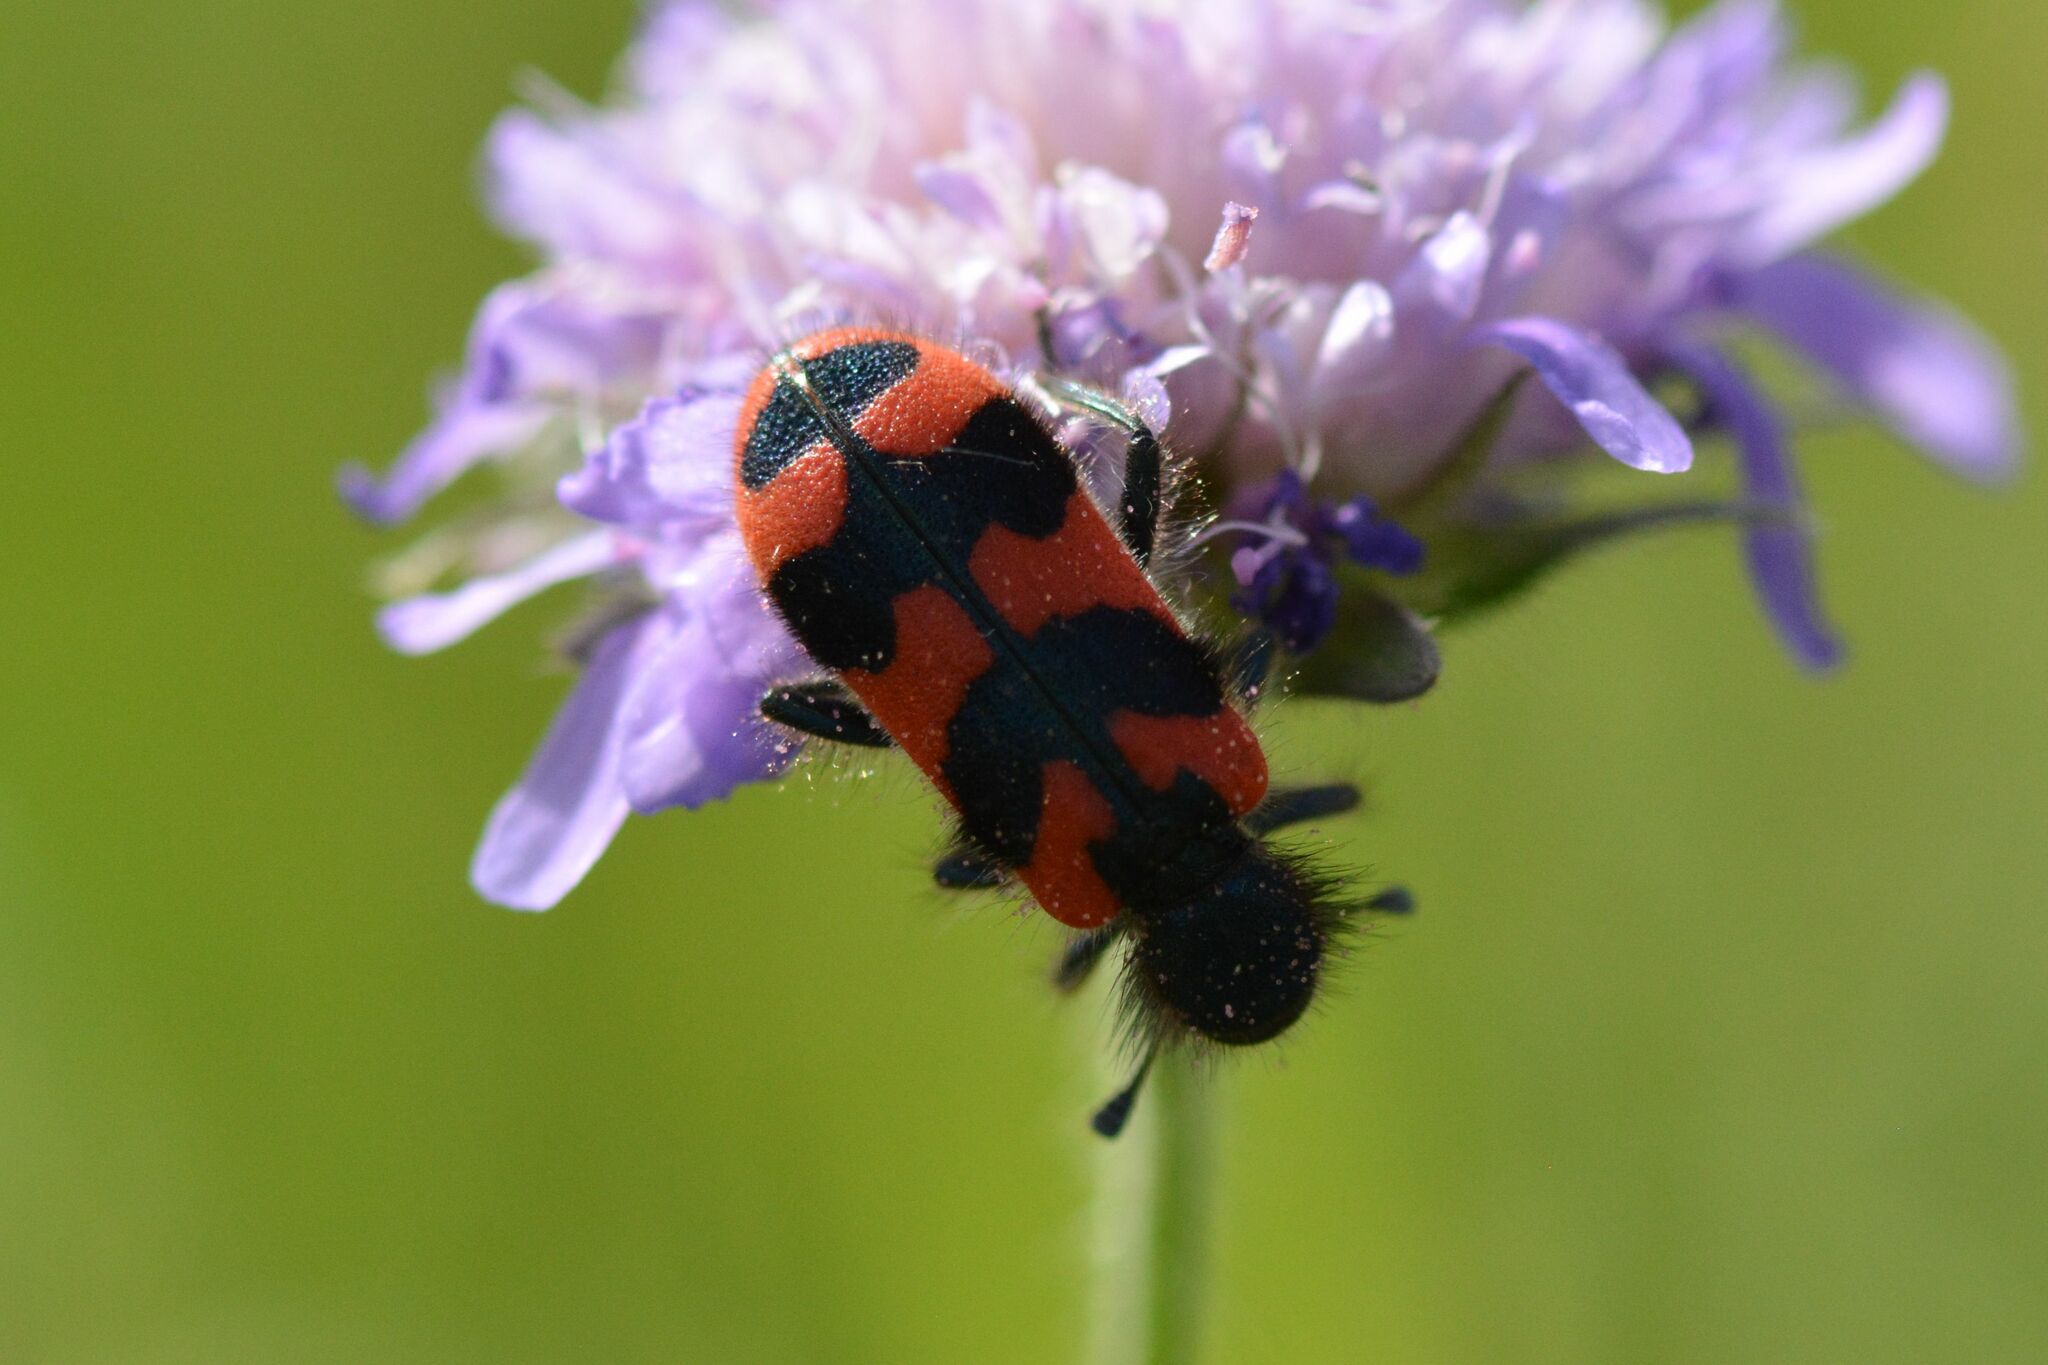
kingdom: Animalia
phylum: Arthropoda
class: Insecta
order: Coleoptera
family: Cleridae
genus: Trichodes
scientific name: Trichodes alvearius
